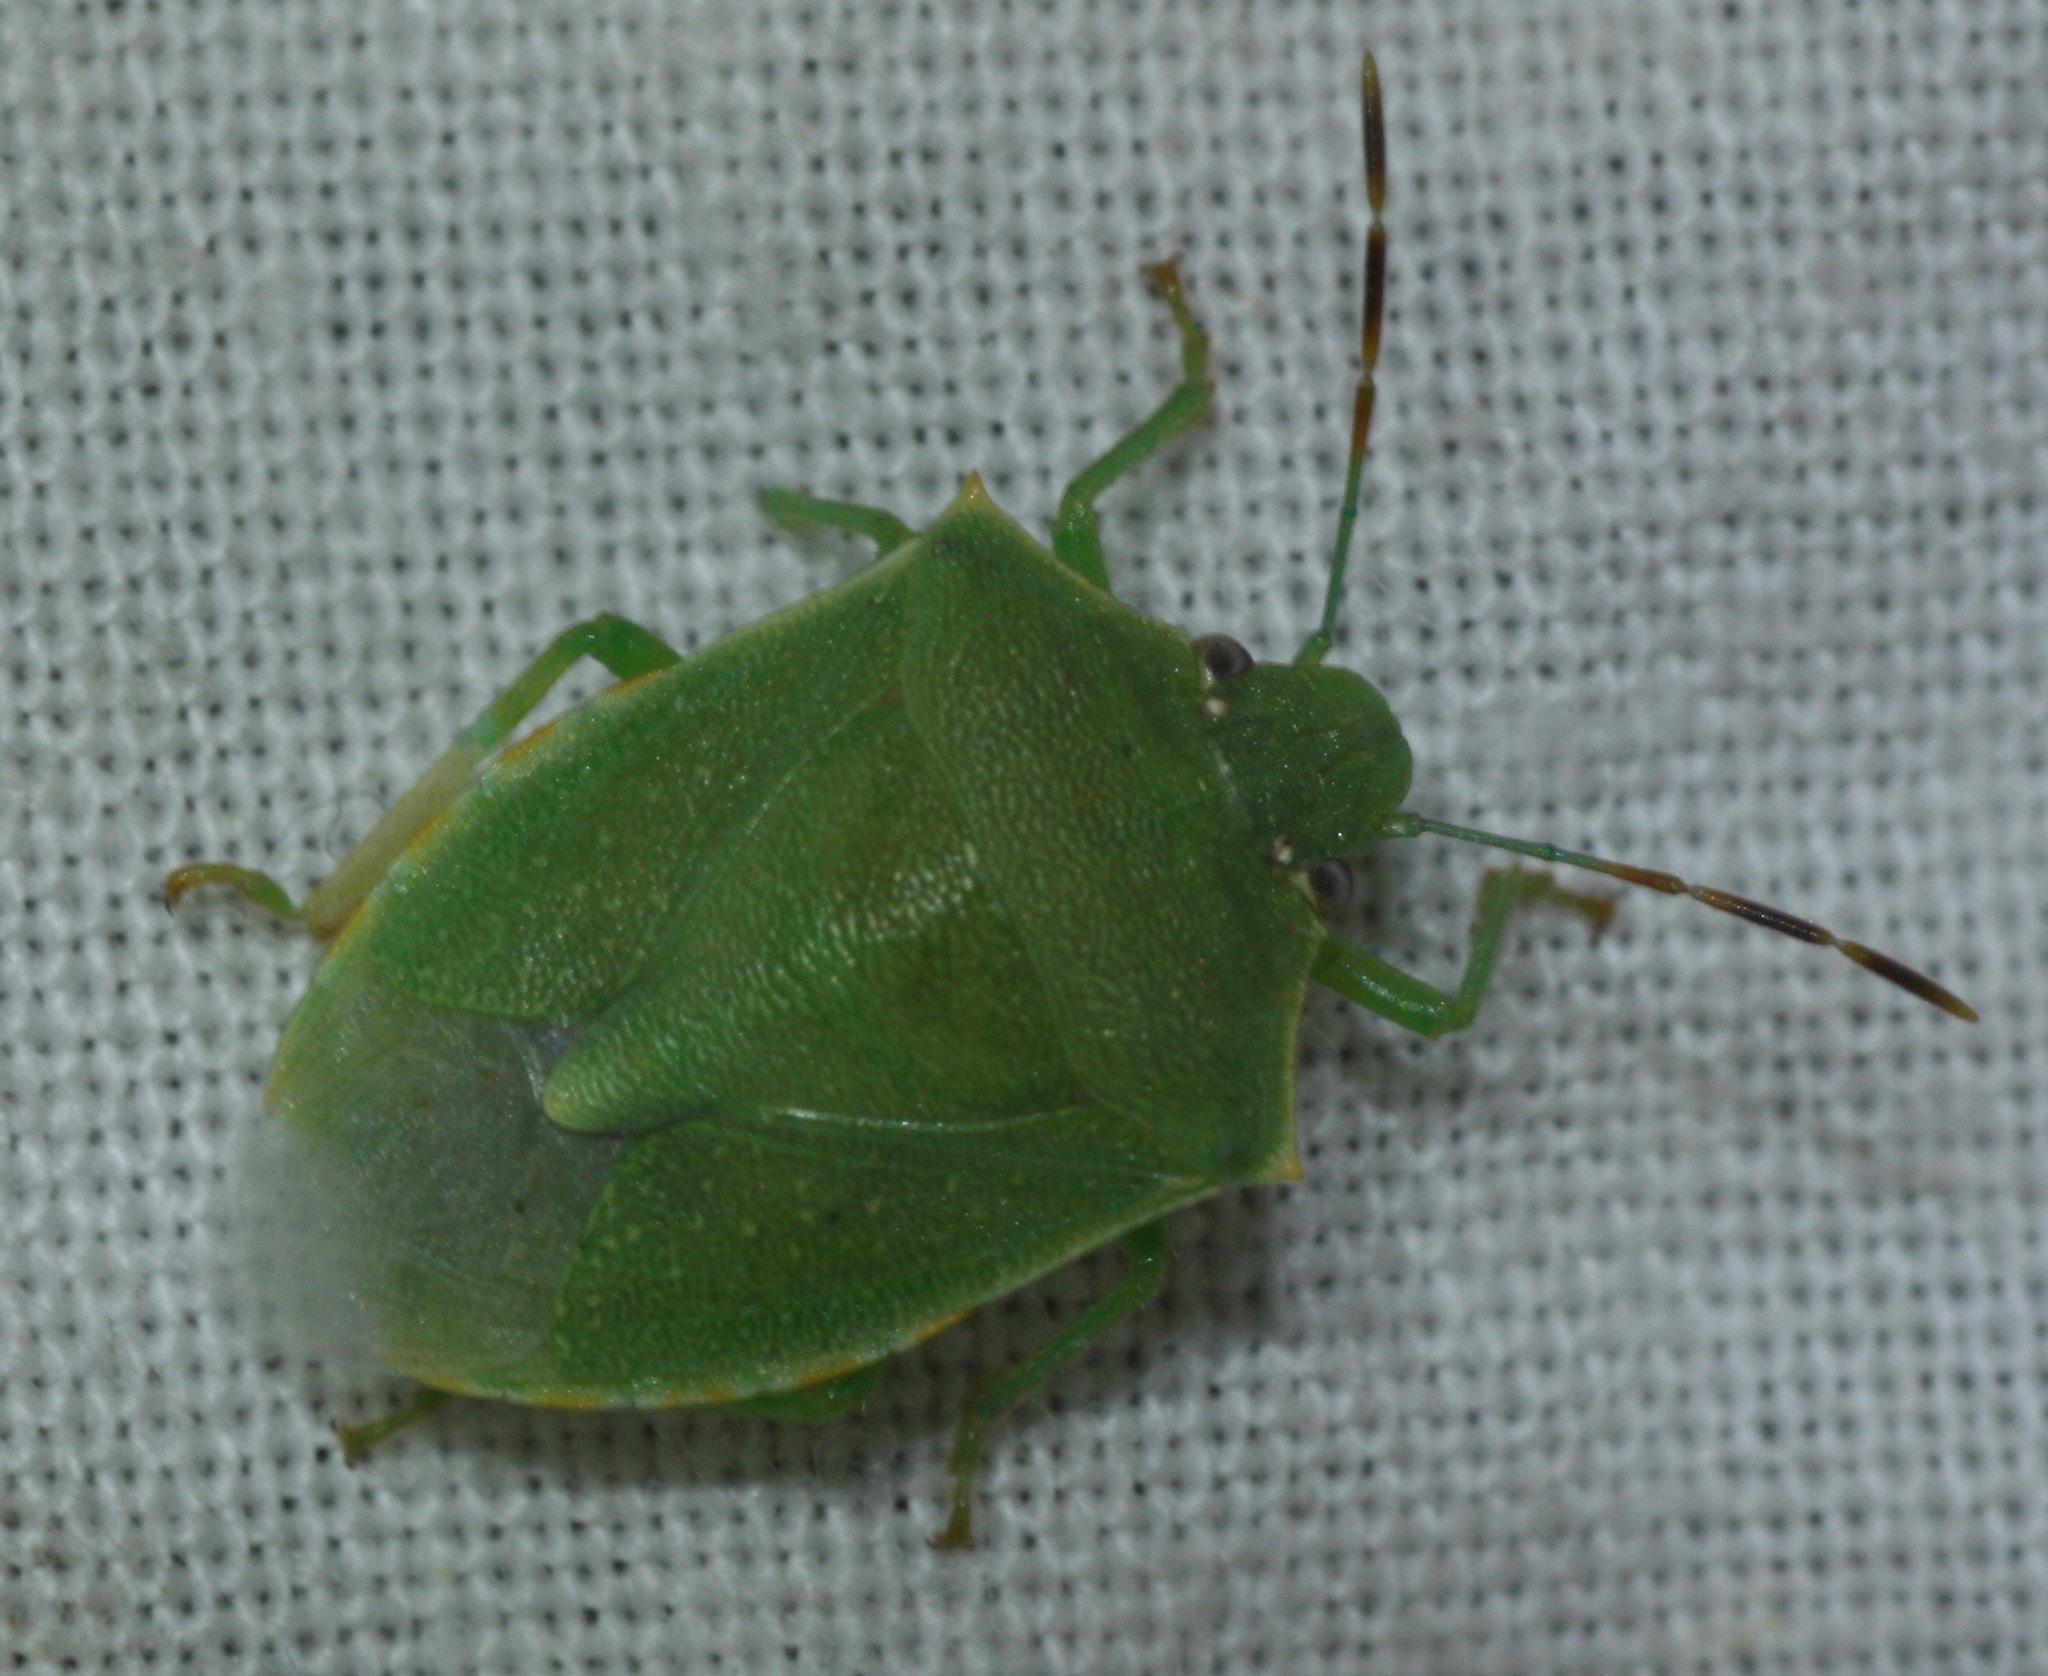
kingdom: Animalia
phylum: Arthropoda
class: Insecta
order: Hemiptera
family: Pentatomidae
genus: Thyanta
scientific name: Thyanta accerra
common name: Stink bug
